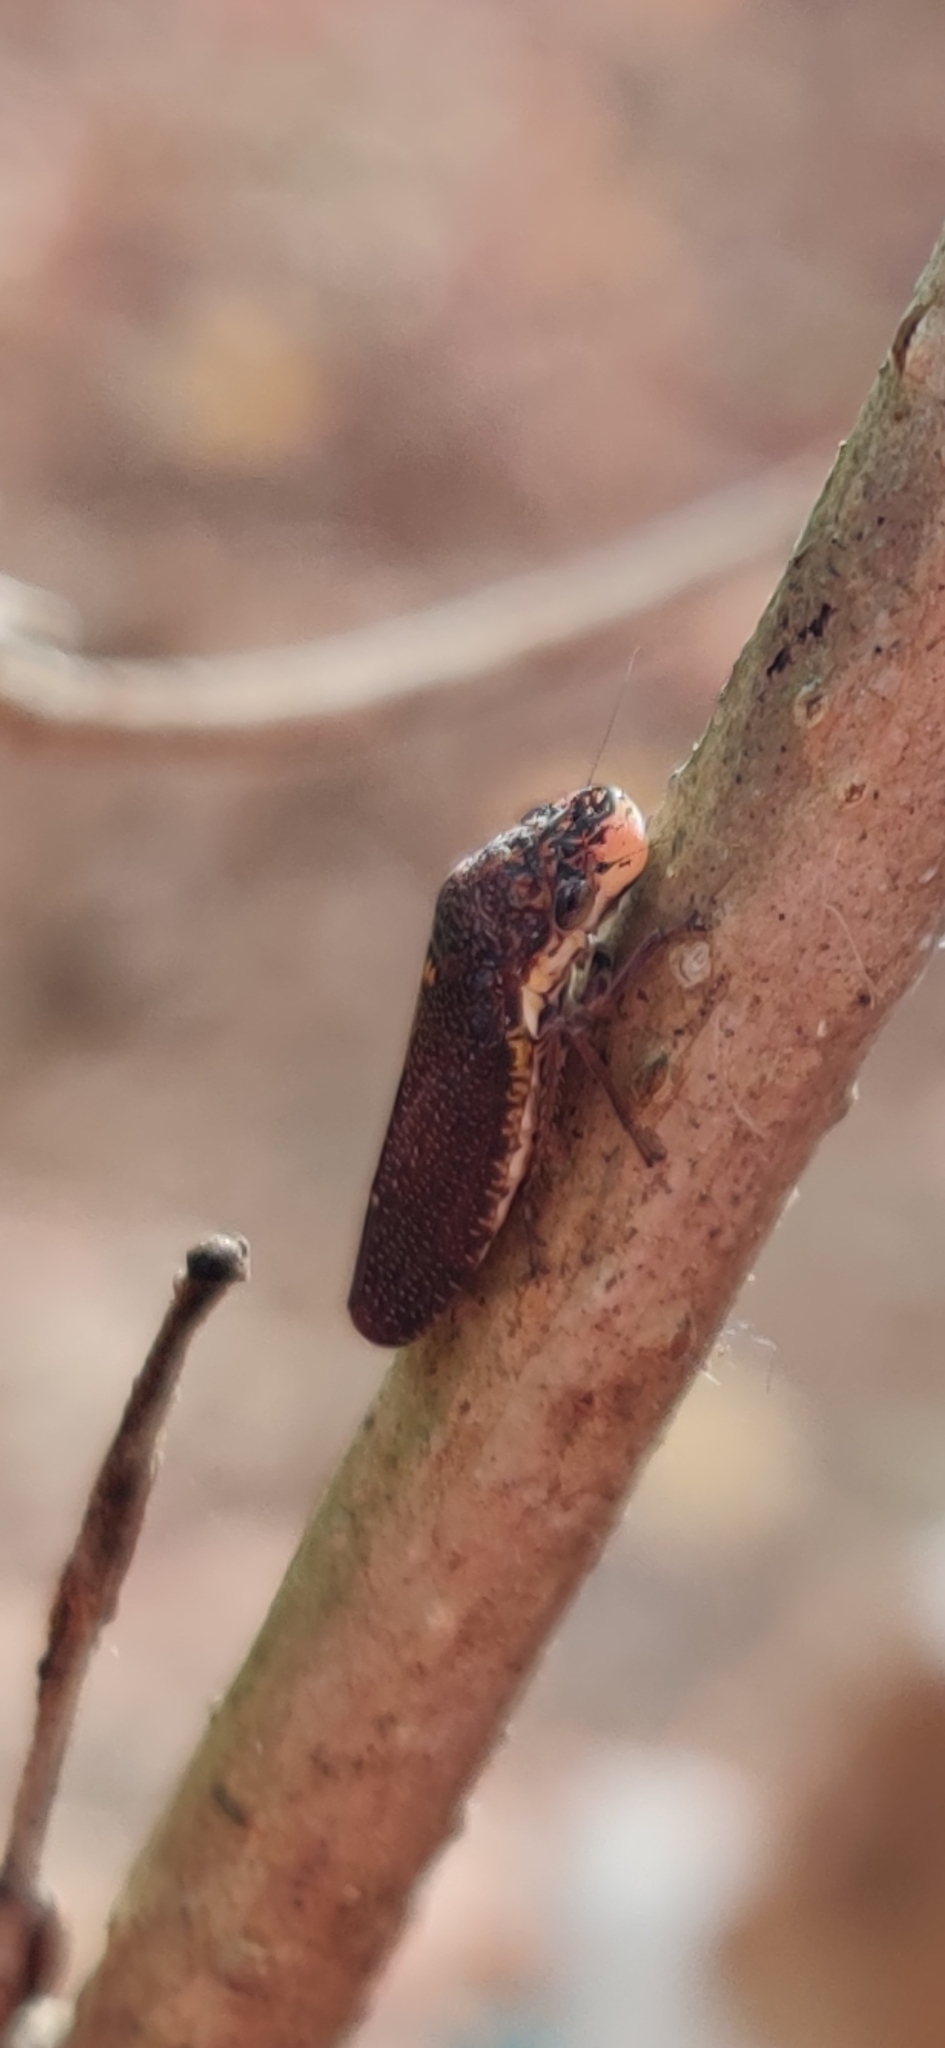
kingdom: Animalia
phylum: Arthropoda
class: Insecta
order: Hemiptera
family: Cicadellidae
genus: Paraulacizes
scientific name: Paraulacizes irrorata
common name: Speckled sharpshooter
